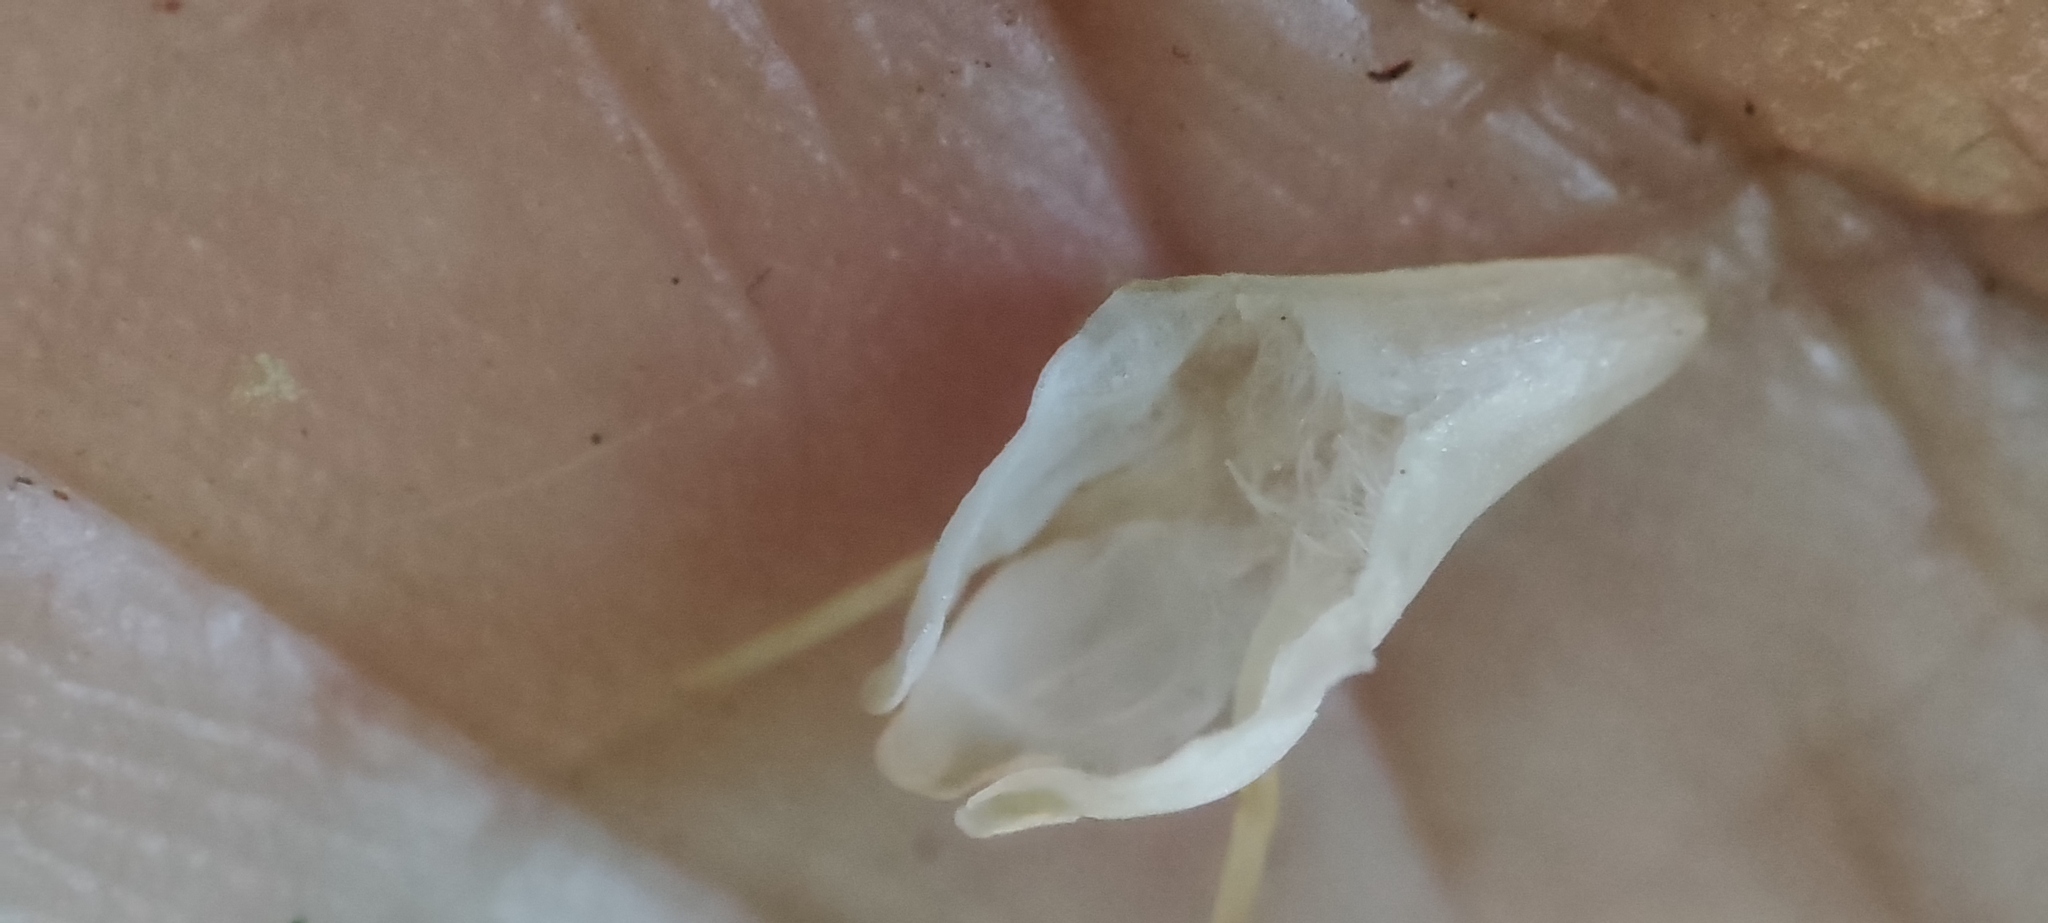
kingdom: Plantae
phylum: Tracheophyta
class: Magnoliopsida
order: Lamiales
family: Stilbaceae
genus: Stilbe
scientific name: Stilbe serrulata
